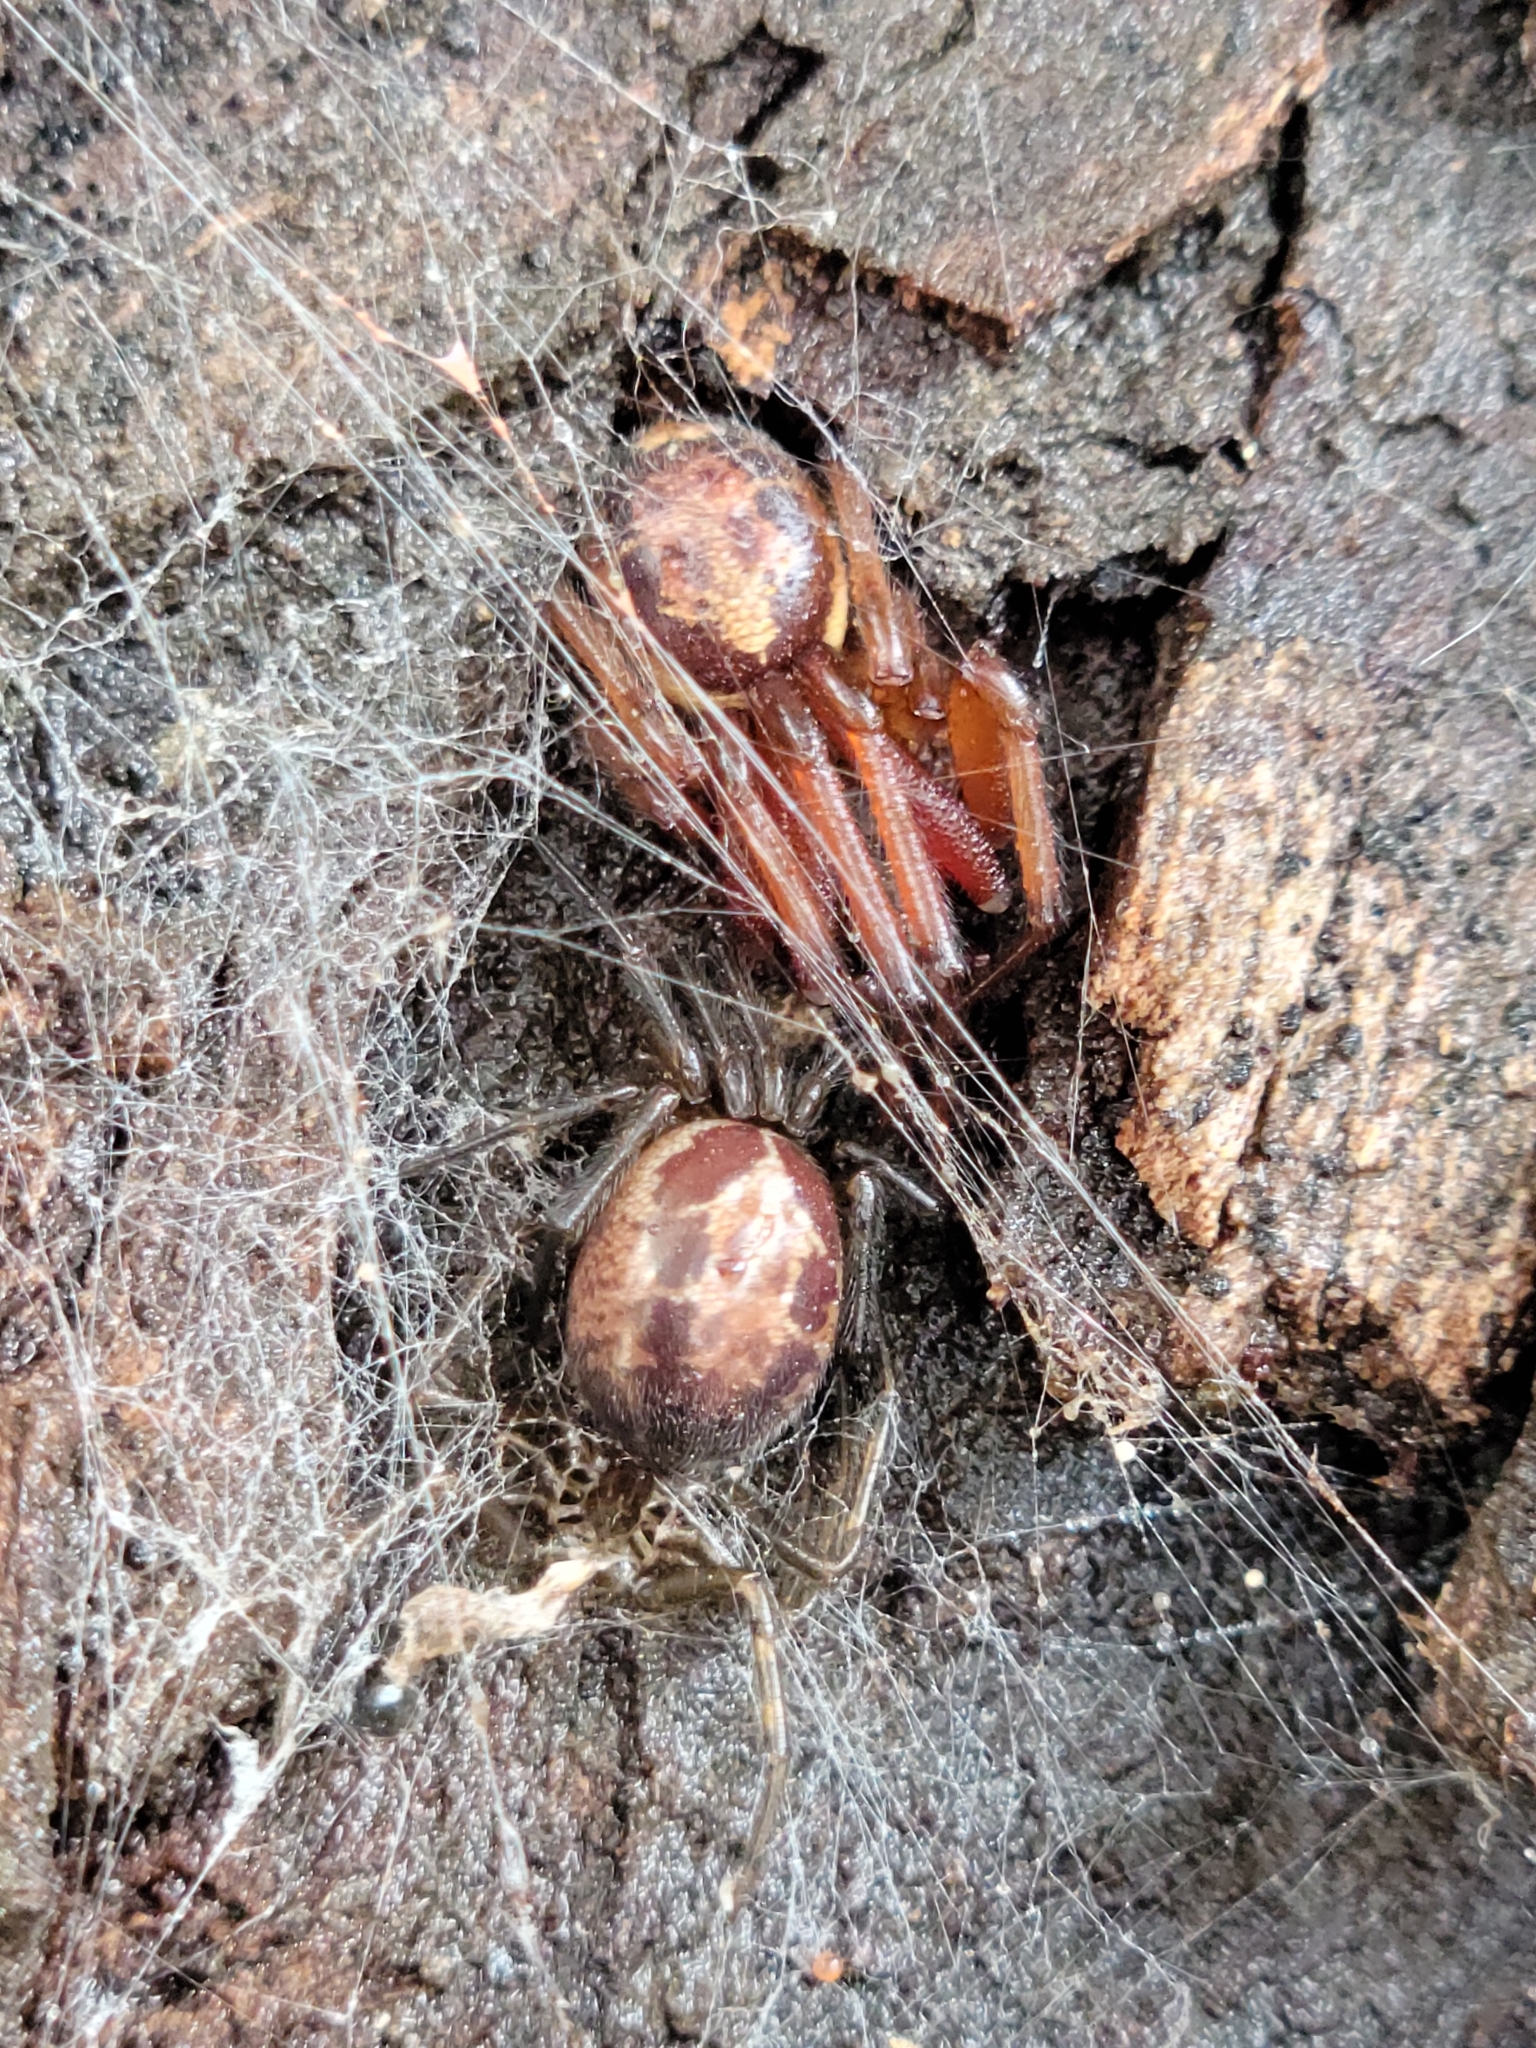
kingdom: Animalia
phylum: Arthropoda
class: Arachnida
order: Araneae
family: Theridiidae
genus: Steatoda
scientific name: Steatoda nobilis
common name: Cobweb weaver
